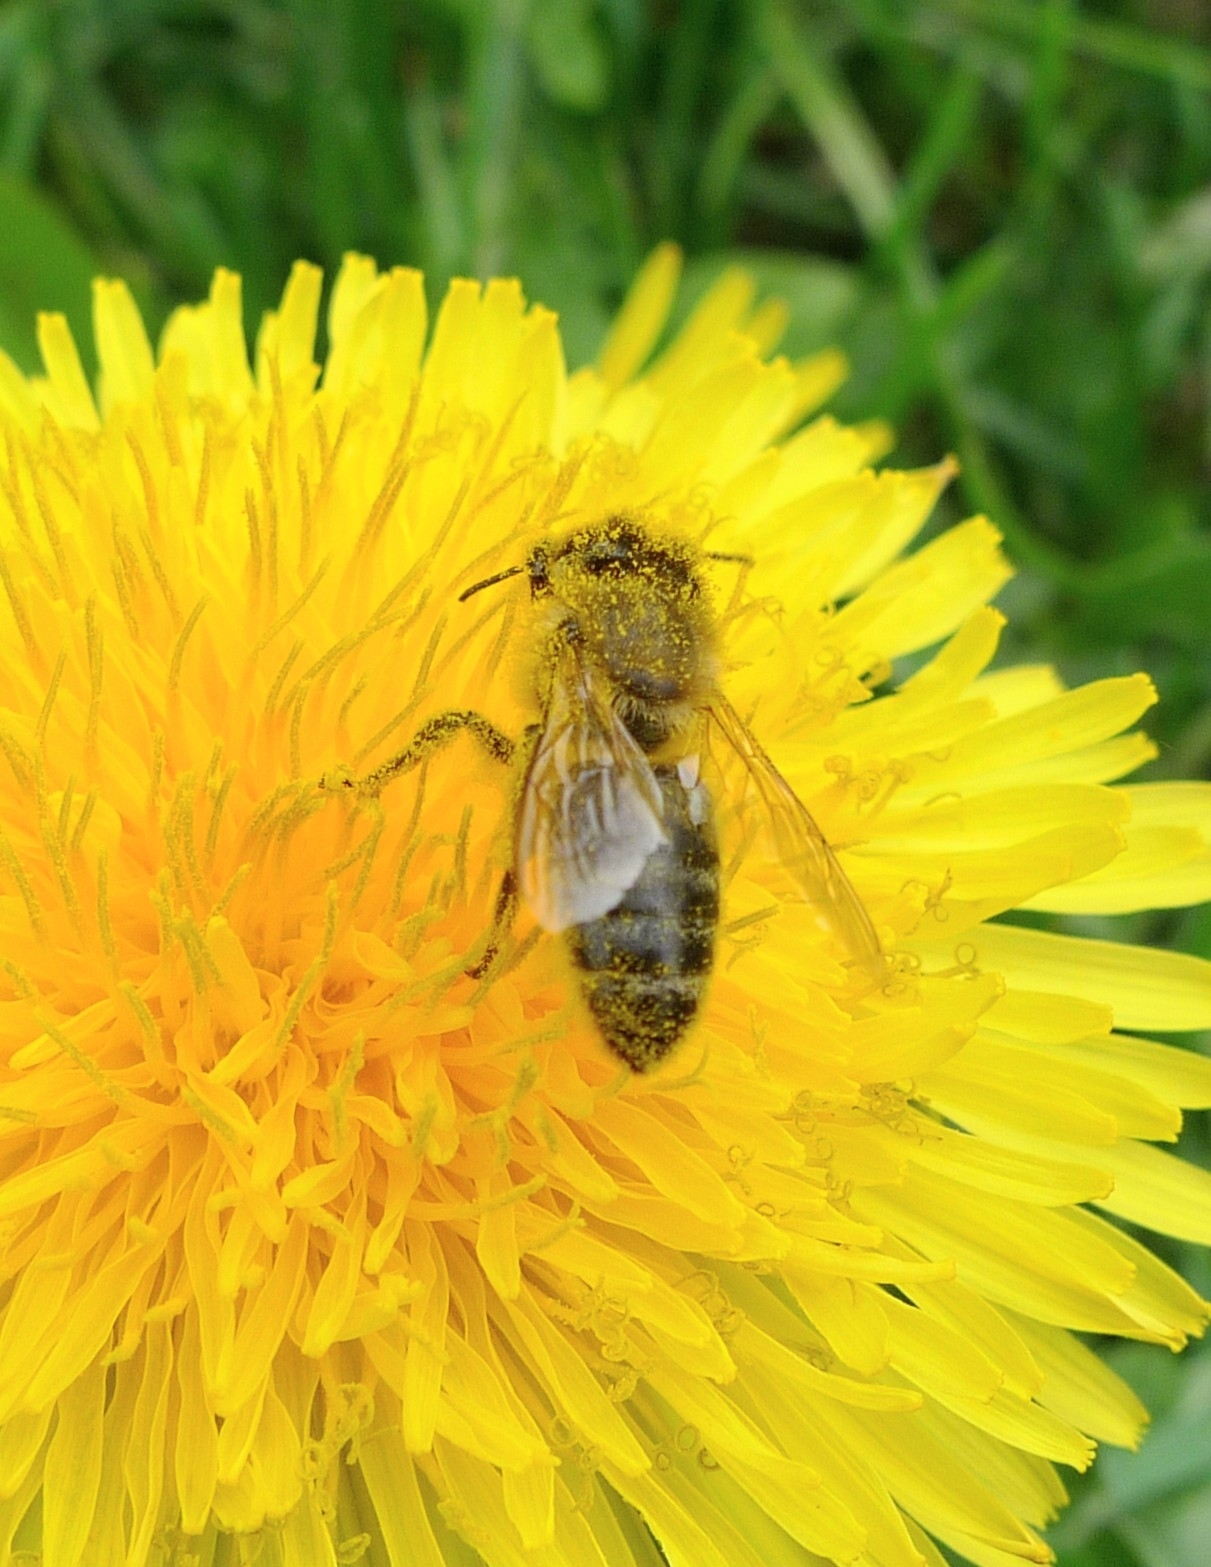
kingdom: Animalia
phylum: Arthropoda
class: Insecta
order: Hymenoptera
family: Apidae
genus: Apis
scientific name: Apis mellifera
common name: Honey bee
